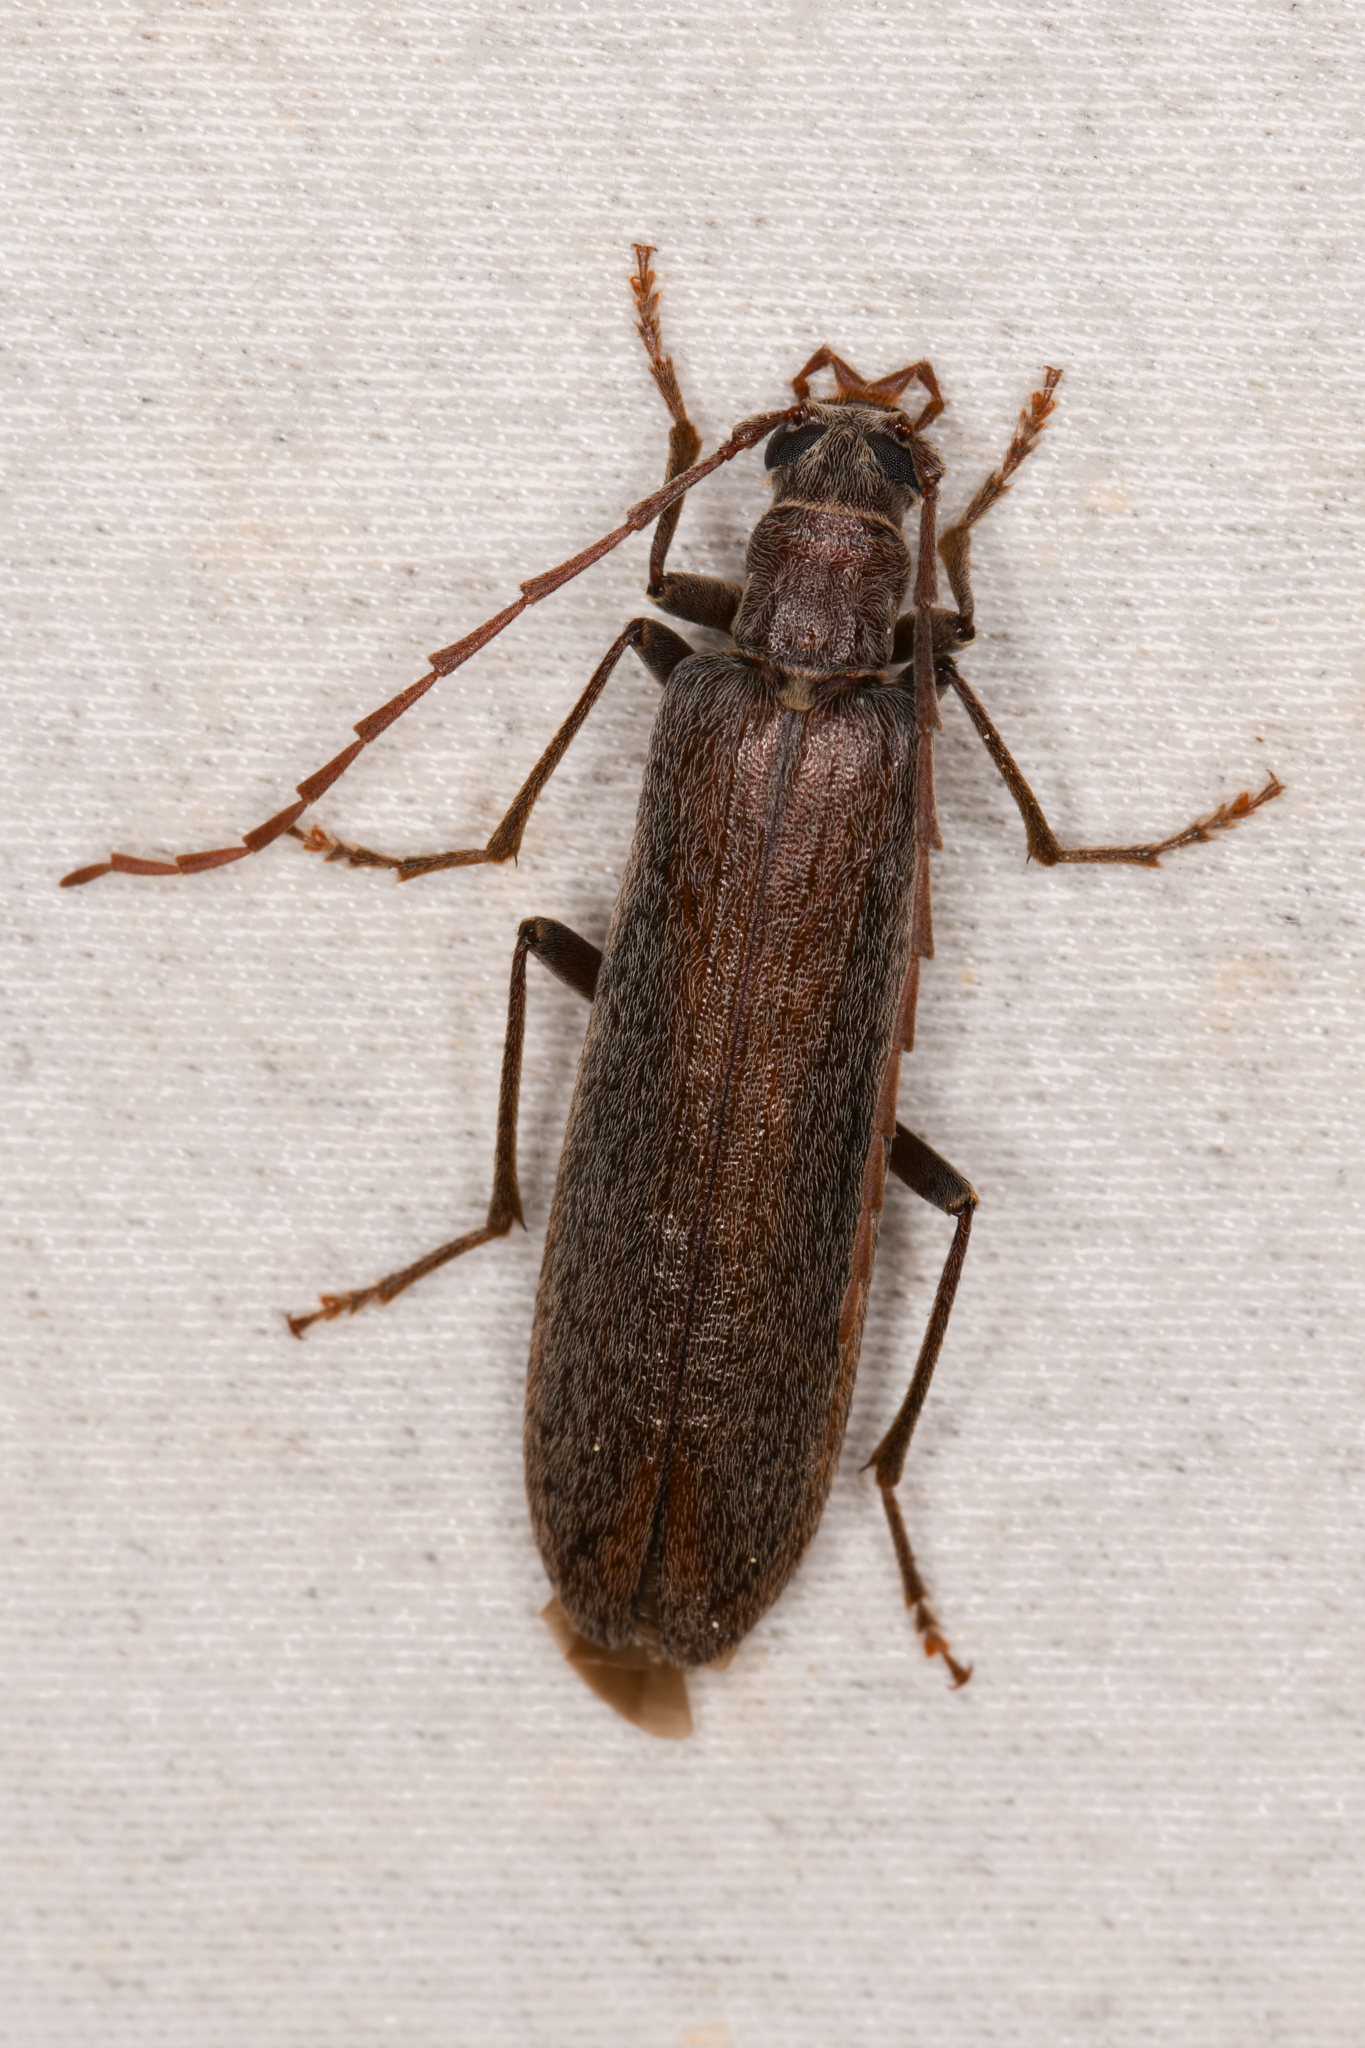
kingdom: Animalia
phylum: Arthropoda
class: Insecta
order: Coleoptera
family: Oedemeridae
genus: Calopus
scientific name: Calopus angustus
